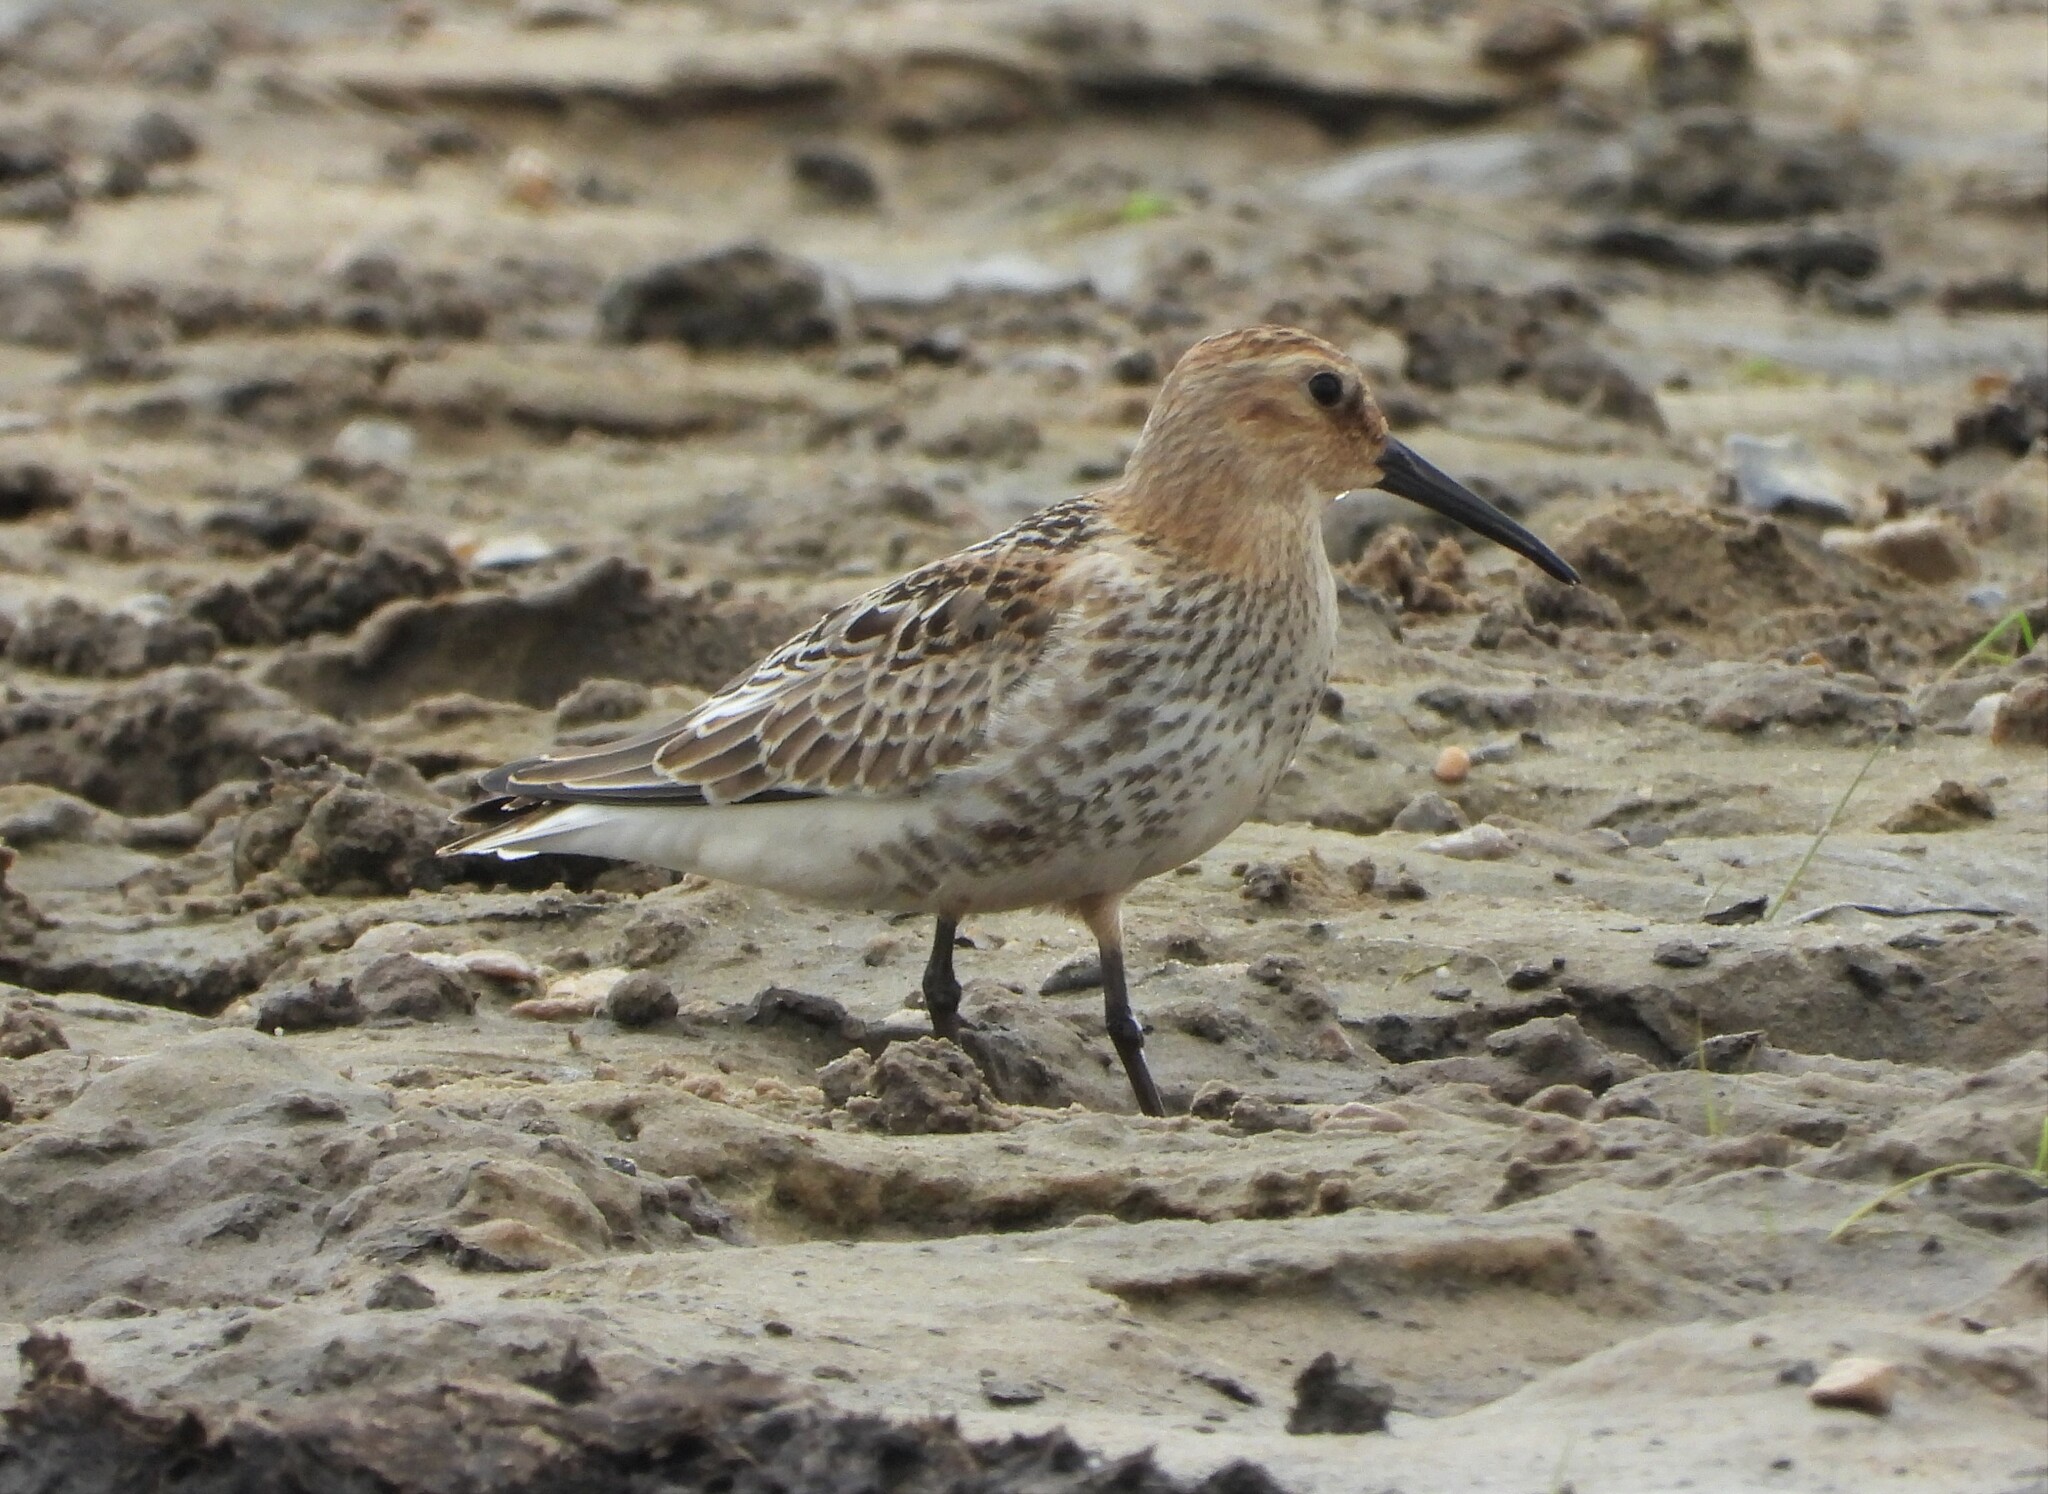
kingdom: Animalia
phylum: Chordata
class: Aves
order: Charadriiformes
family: Scolopacidae
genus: Calidris
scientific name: Calidris alpina
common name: Dunlin
